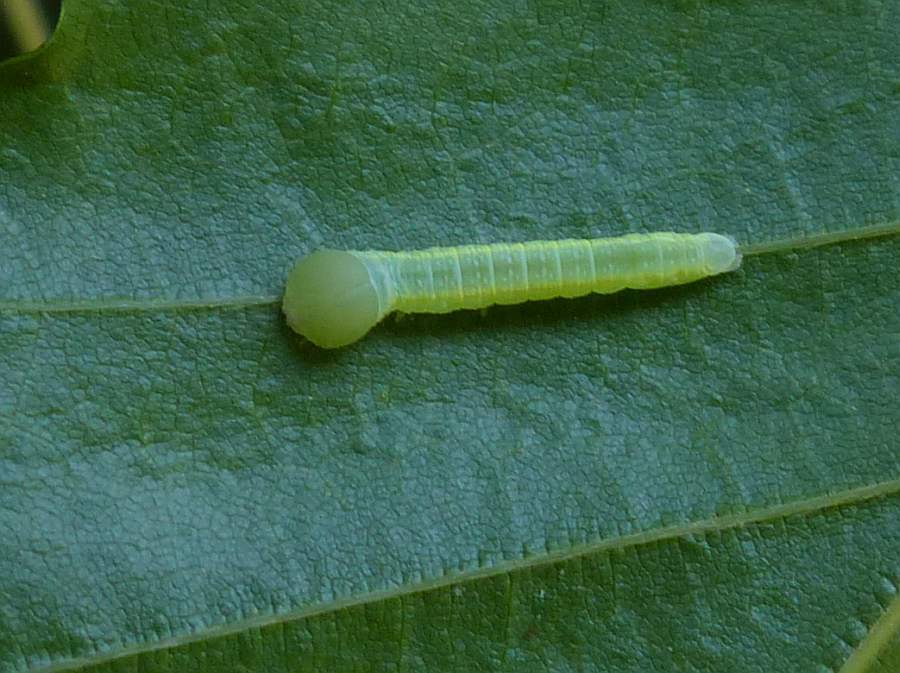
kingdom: Animalia
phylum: Arthropoda
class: Insecta
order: Lepidoptera
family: Notodontidae
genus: Nadata
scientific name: Nadata gibbosa
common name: White-dotted prominent
